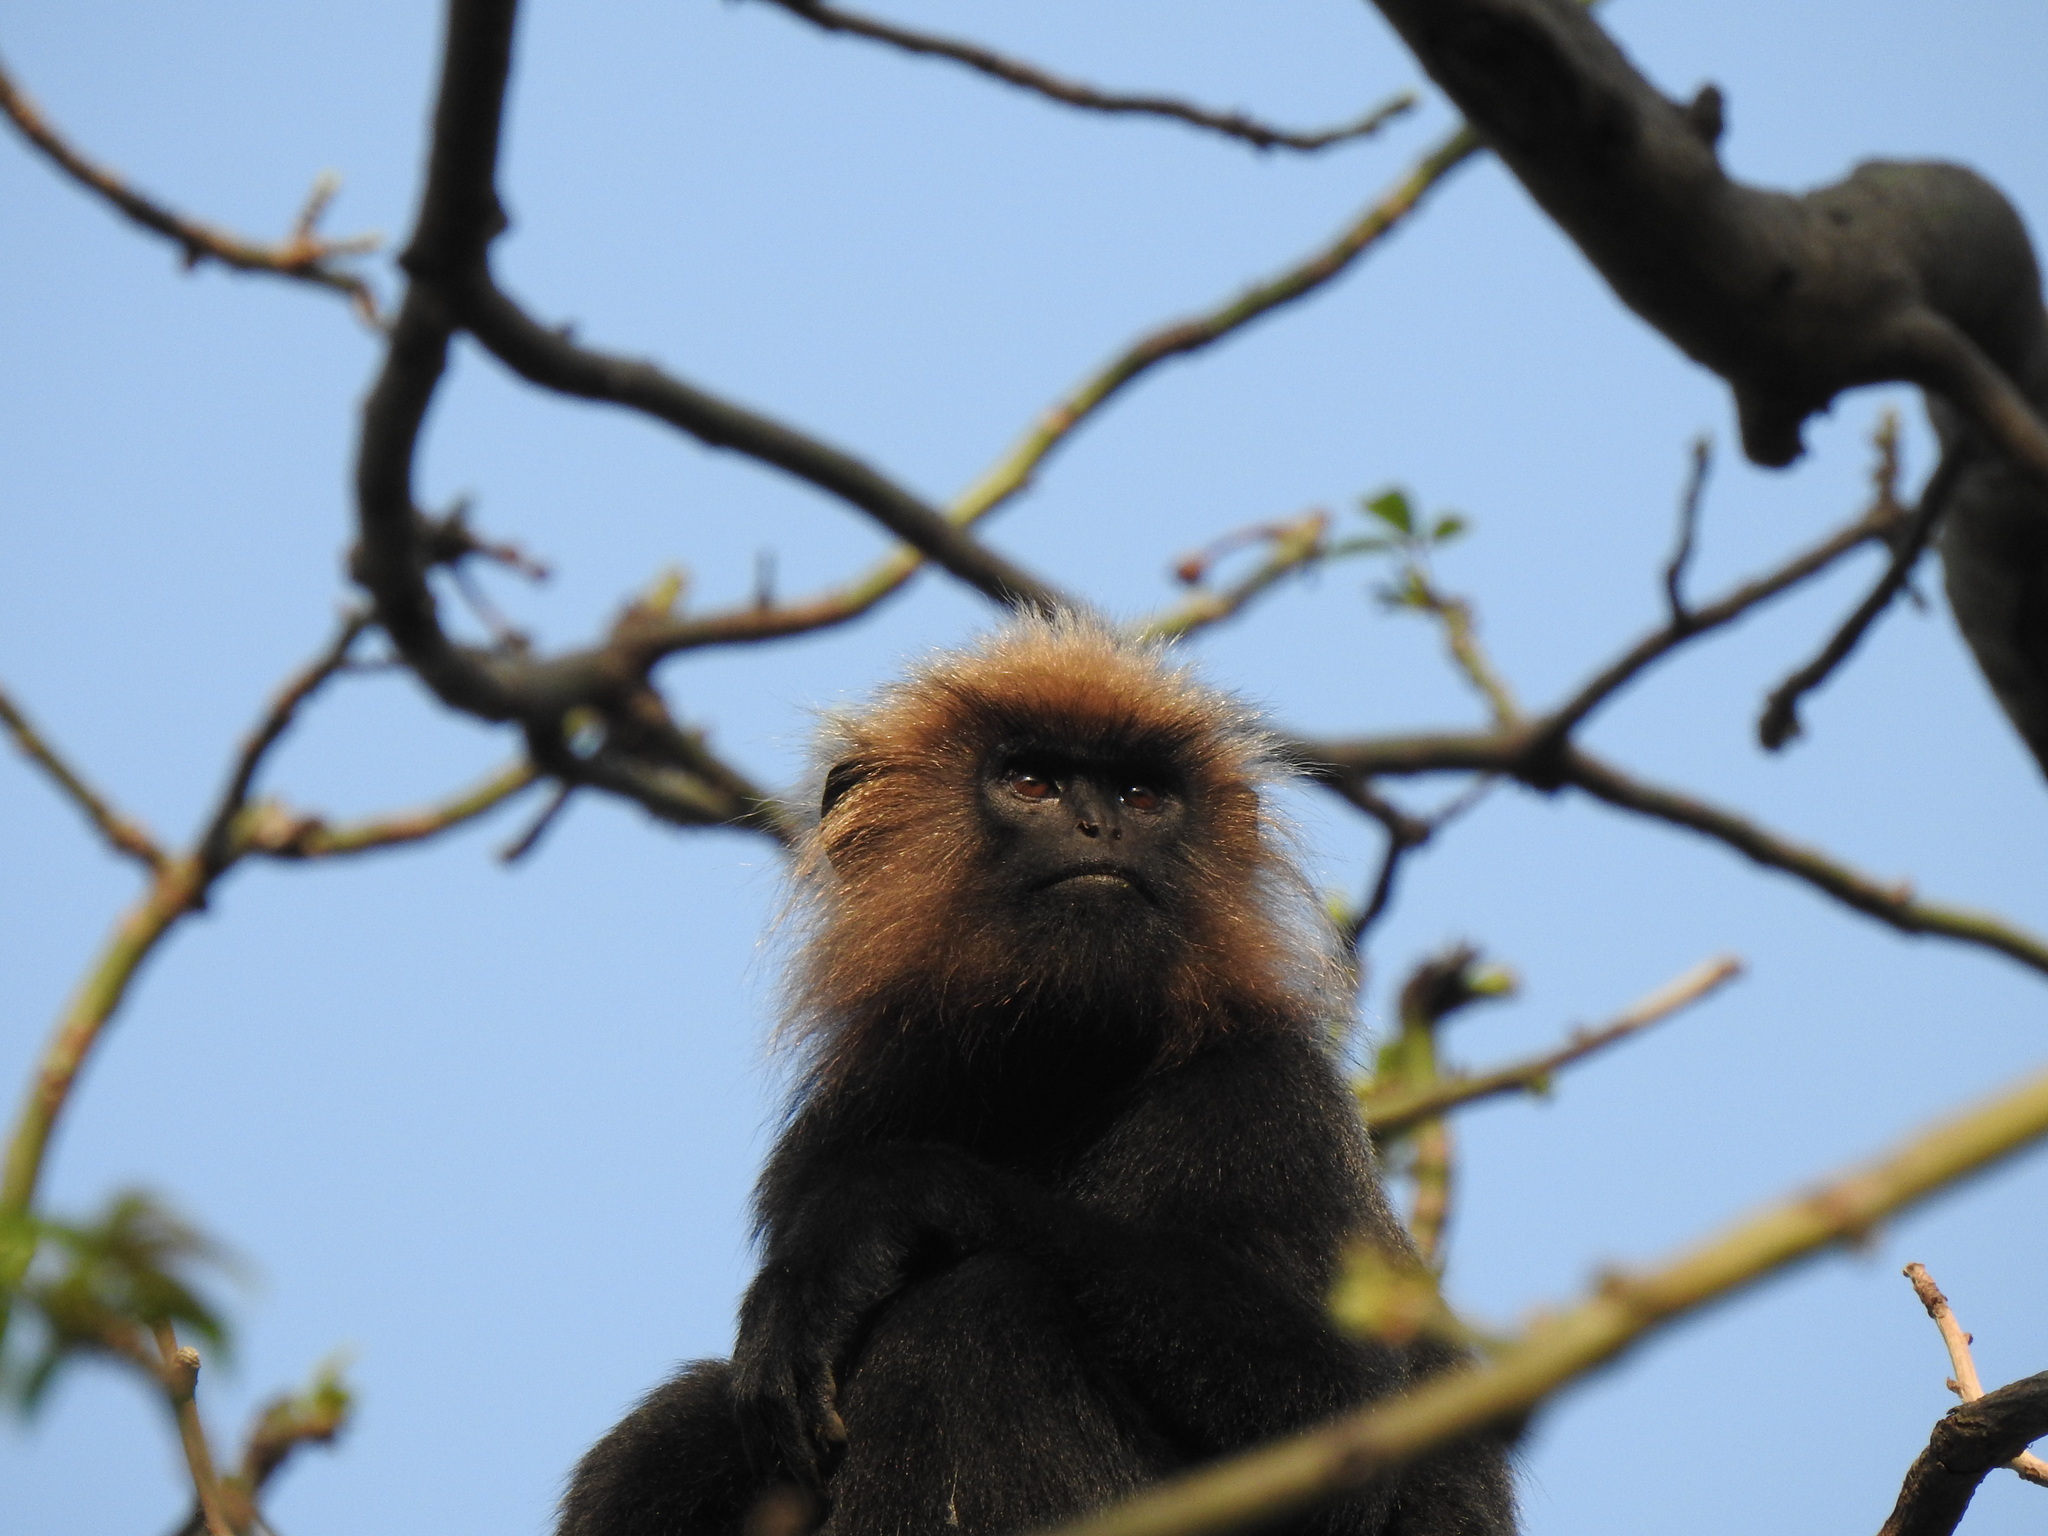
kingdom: Animalia
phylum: Chordata
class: Mammalia
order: Primates
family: Cercopithecidae
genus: Semnopithecus
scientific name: Semnopithecus johnii
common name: Nilgiri langur
